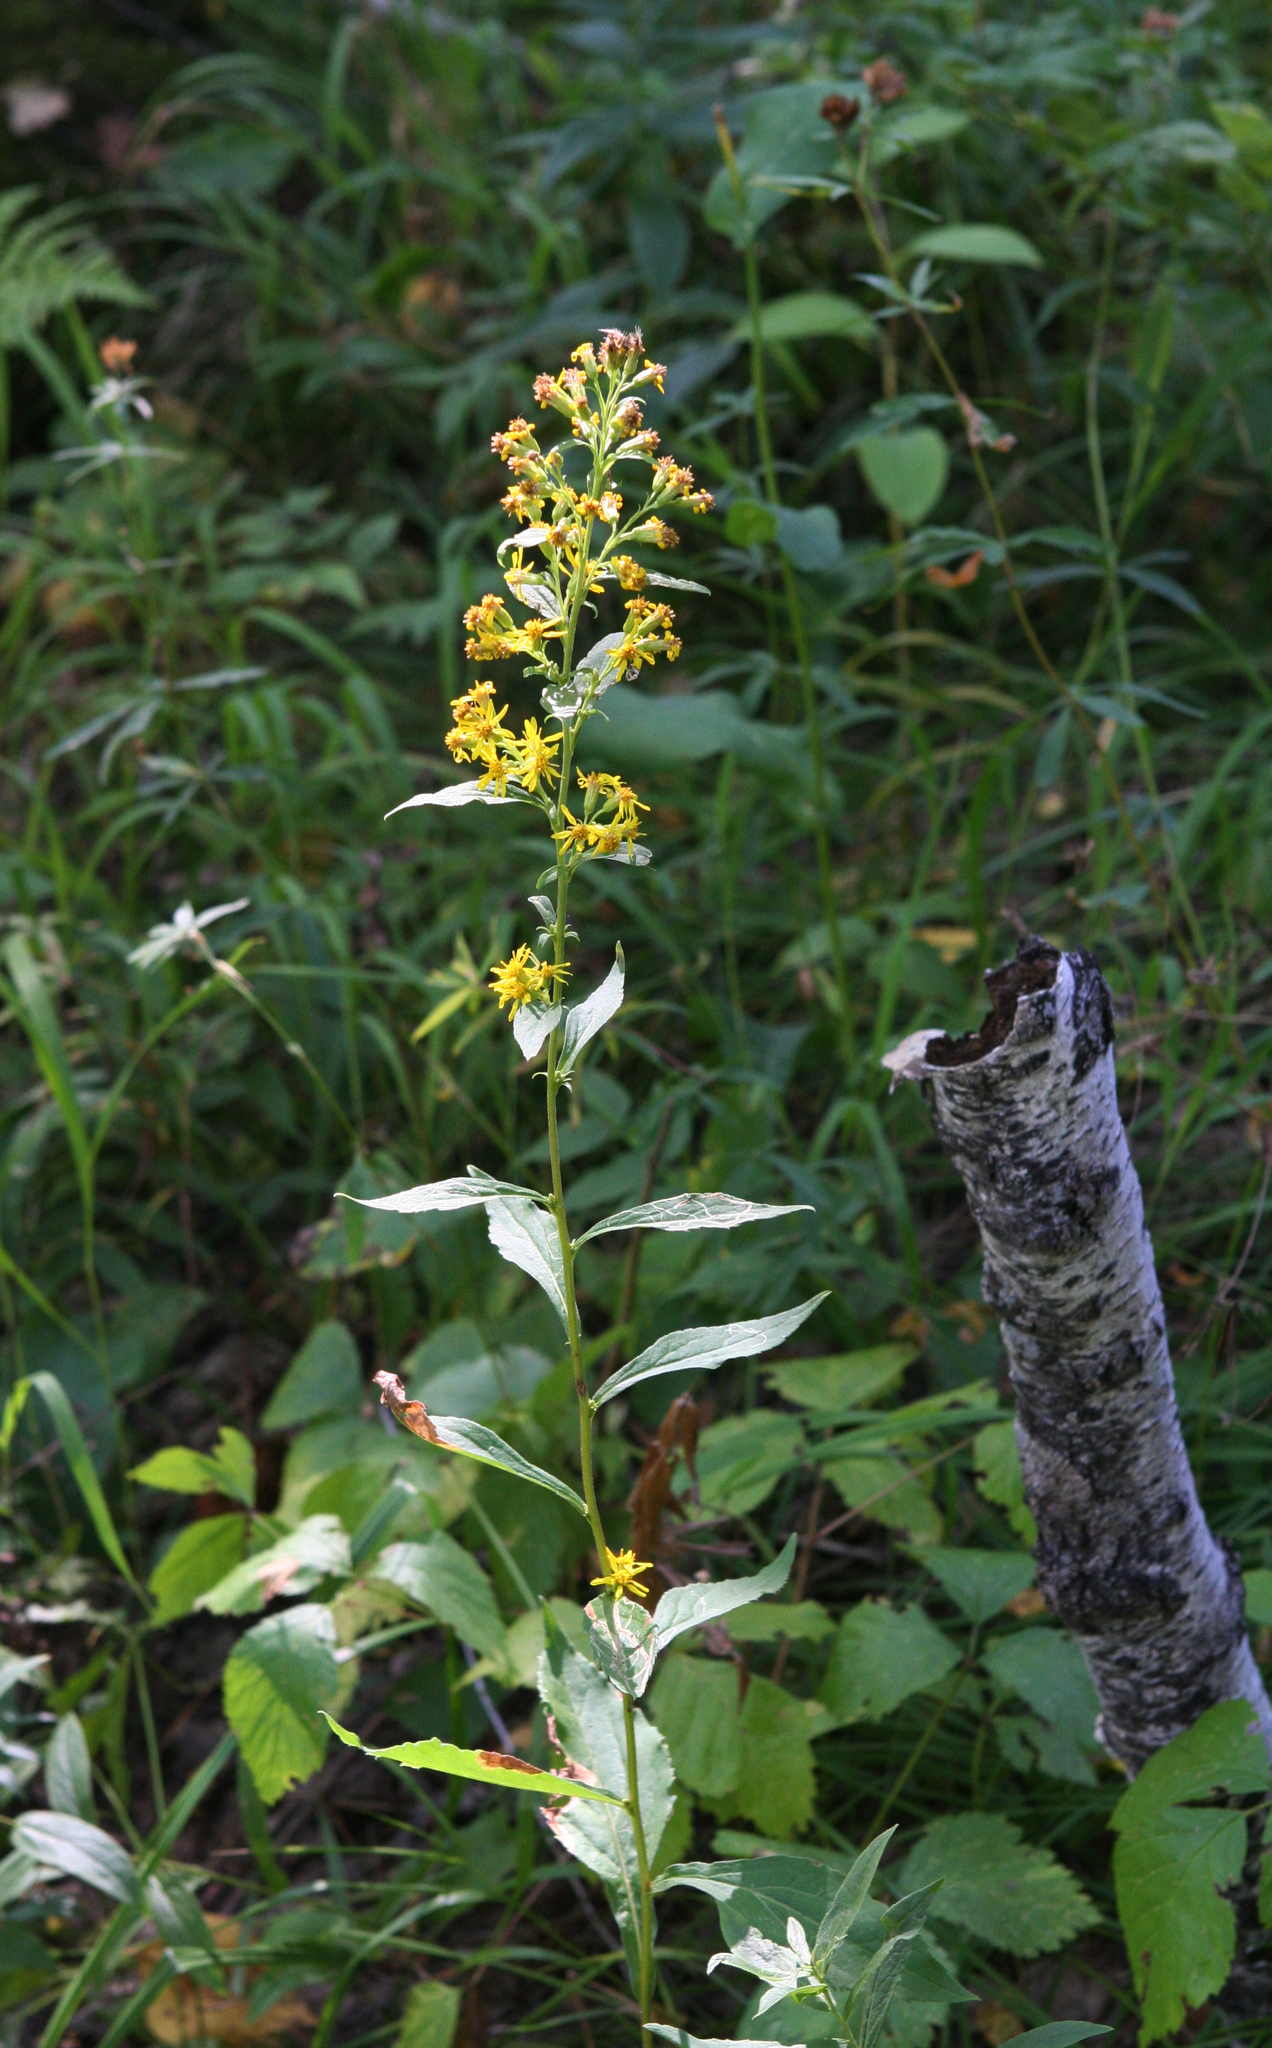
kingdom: Plantae
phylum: Tracheophyta
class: Magnoliopsida
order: Asterales
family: Asteraceae
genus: Solidago
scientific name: Solidago virgaurea
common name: Goldenrod
